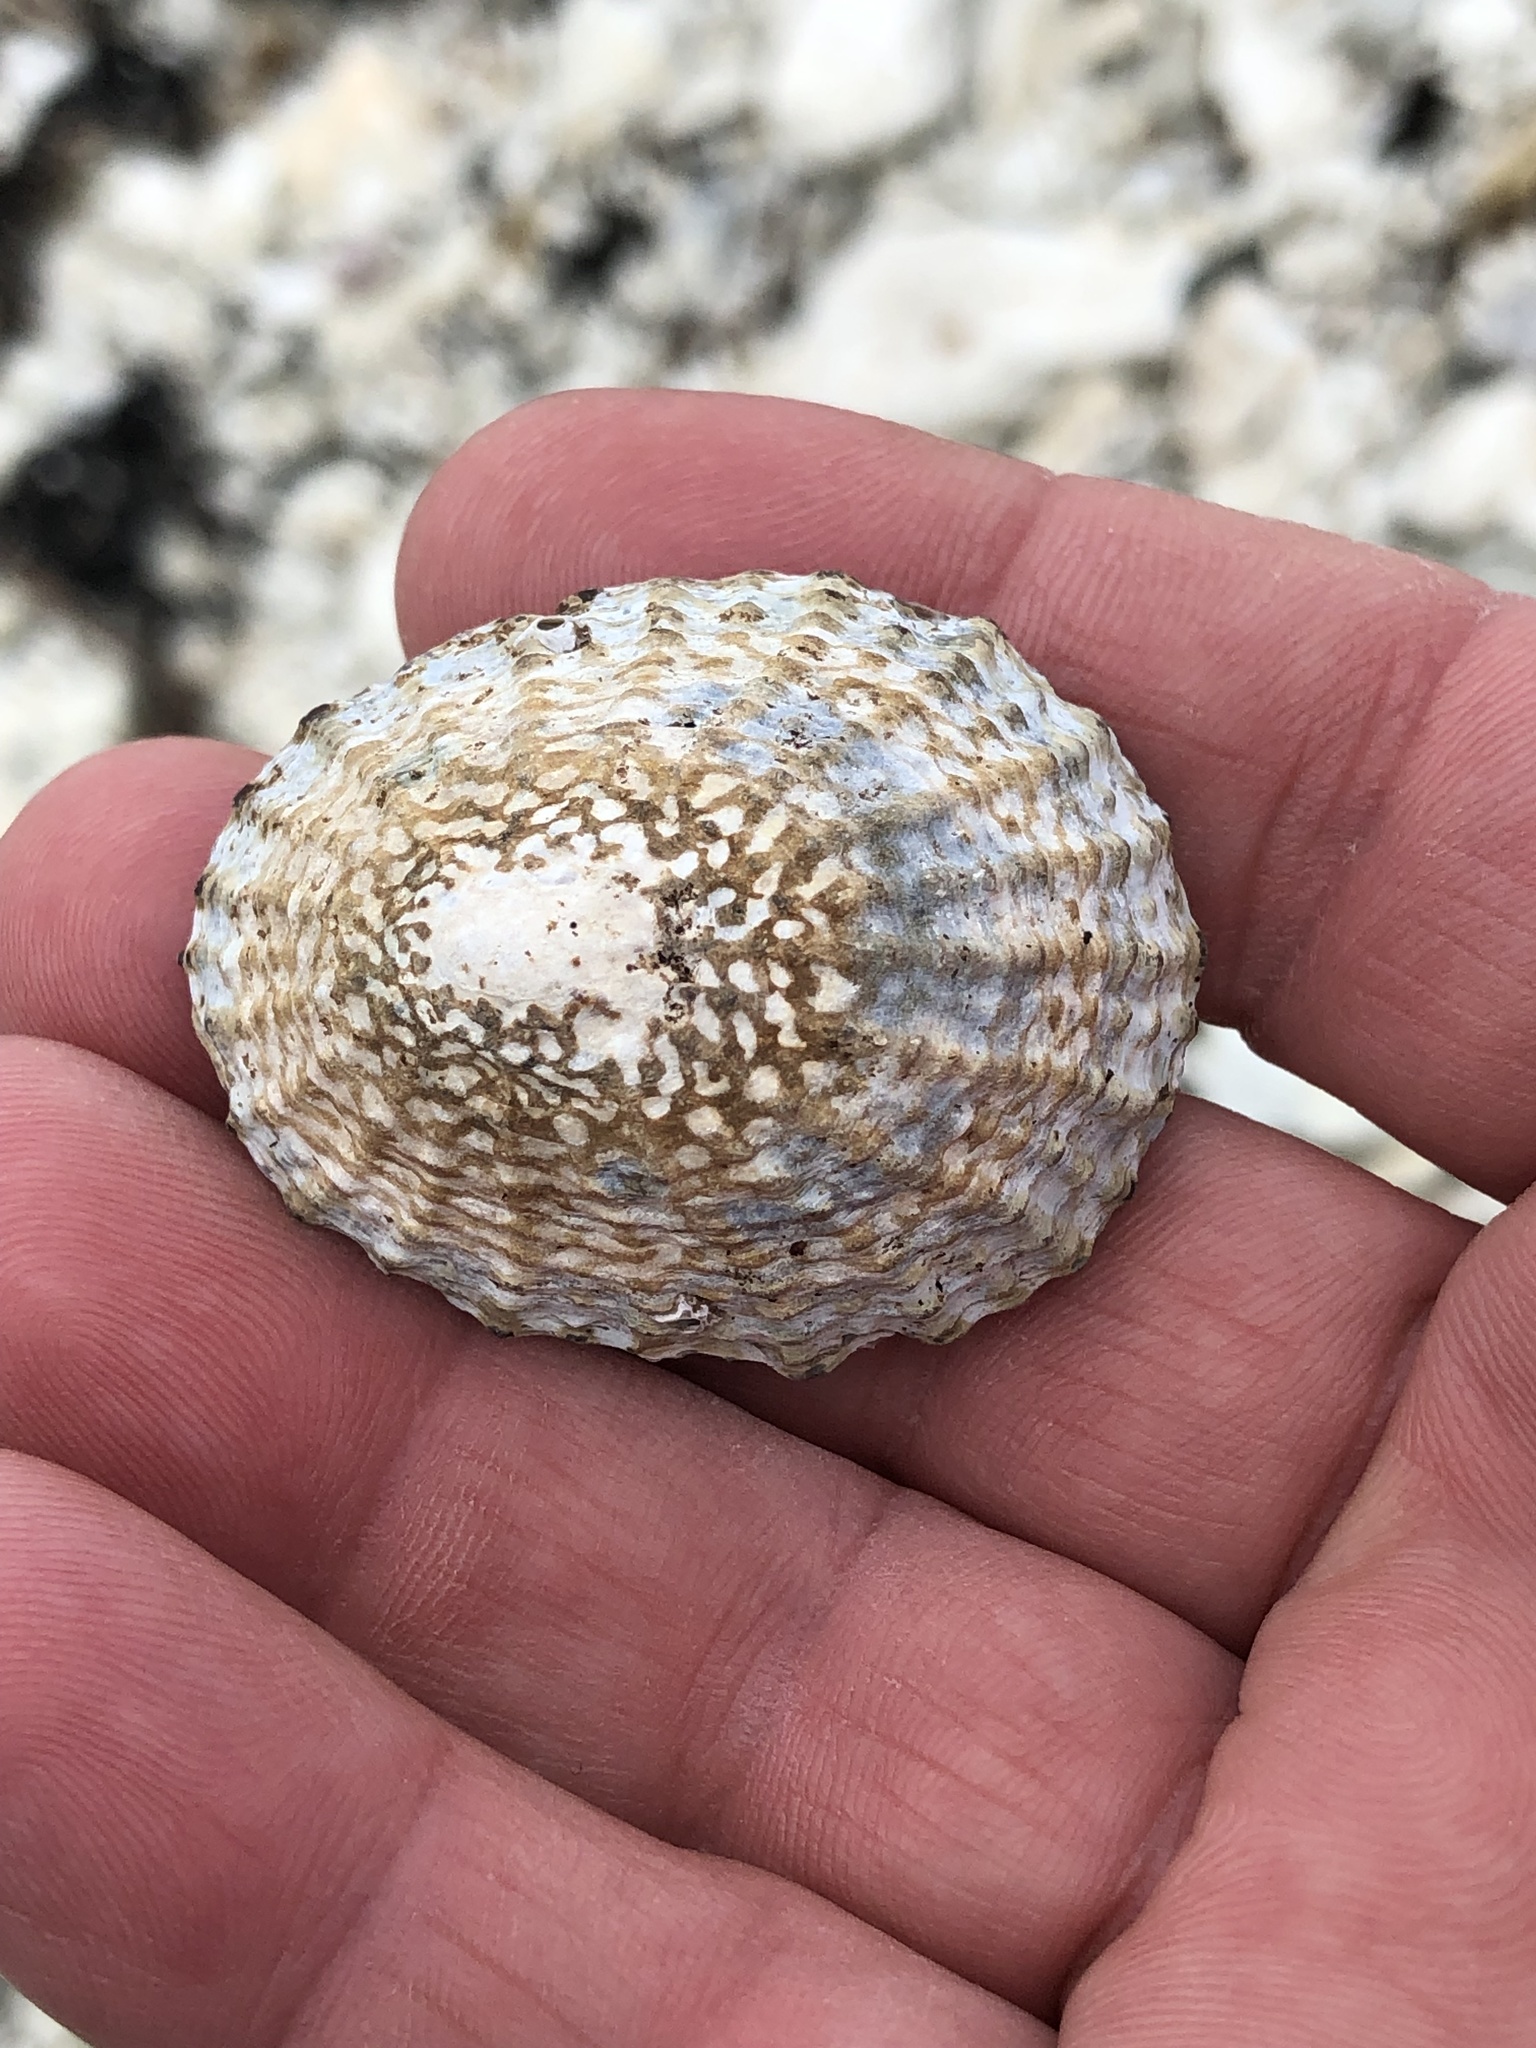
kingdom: Animalia
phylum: Mollusca
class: Gastropoda
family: Nacellidae
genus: Cellana
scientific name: Cellana denticulata
